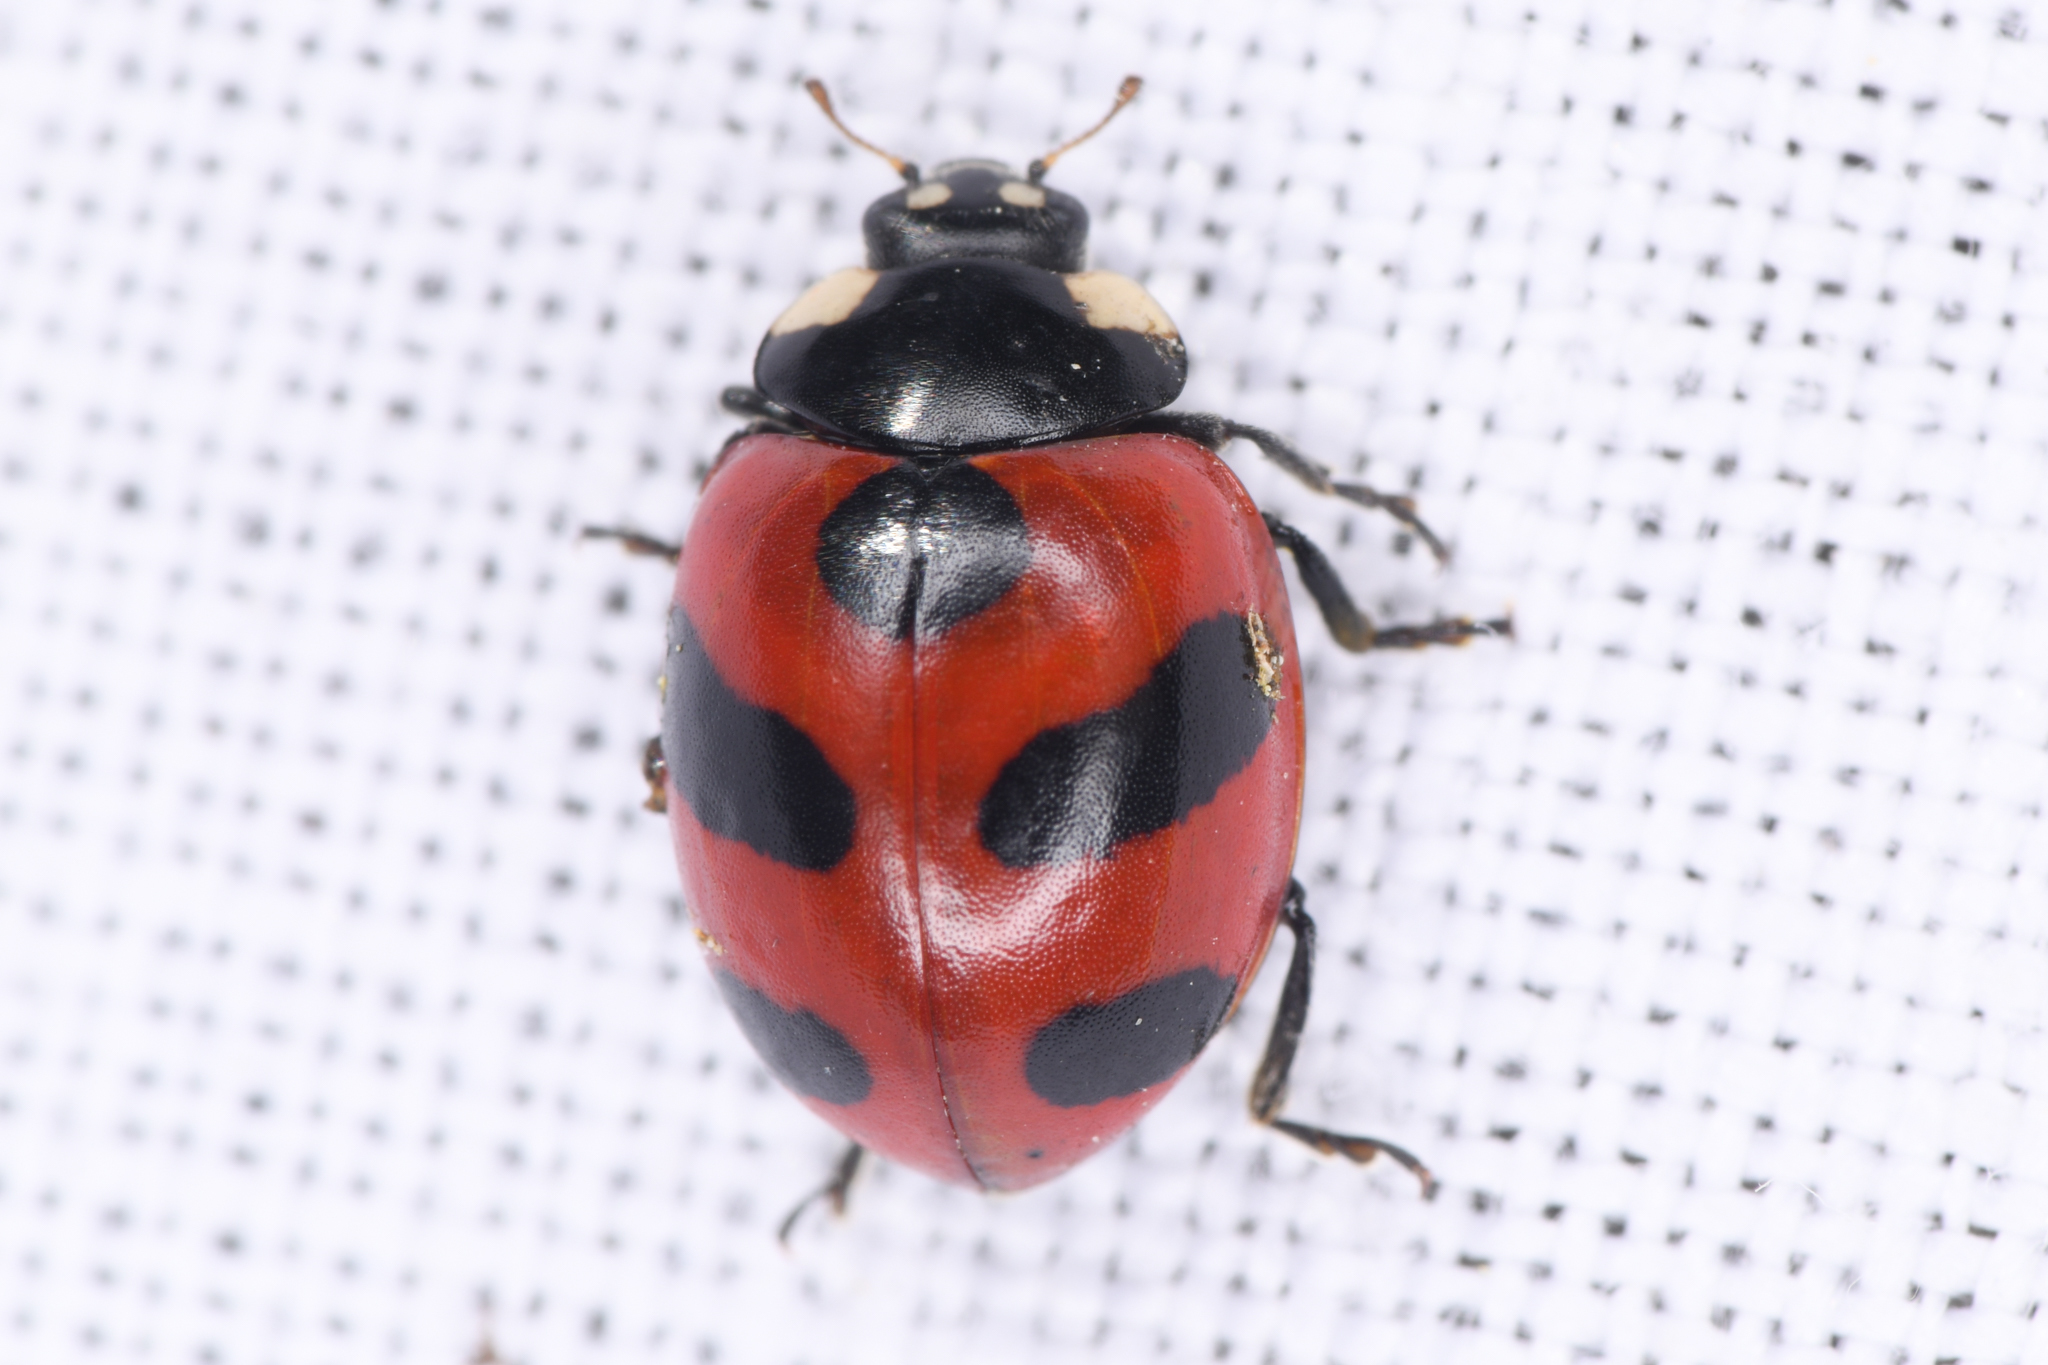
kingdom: Animalia
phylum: Arthropoda
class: Insecta
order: Coleoptera
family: Coccinellidae
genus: Coccinella
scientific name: Coccinella monticola
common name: Mountain lady beetle
